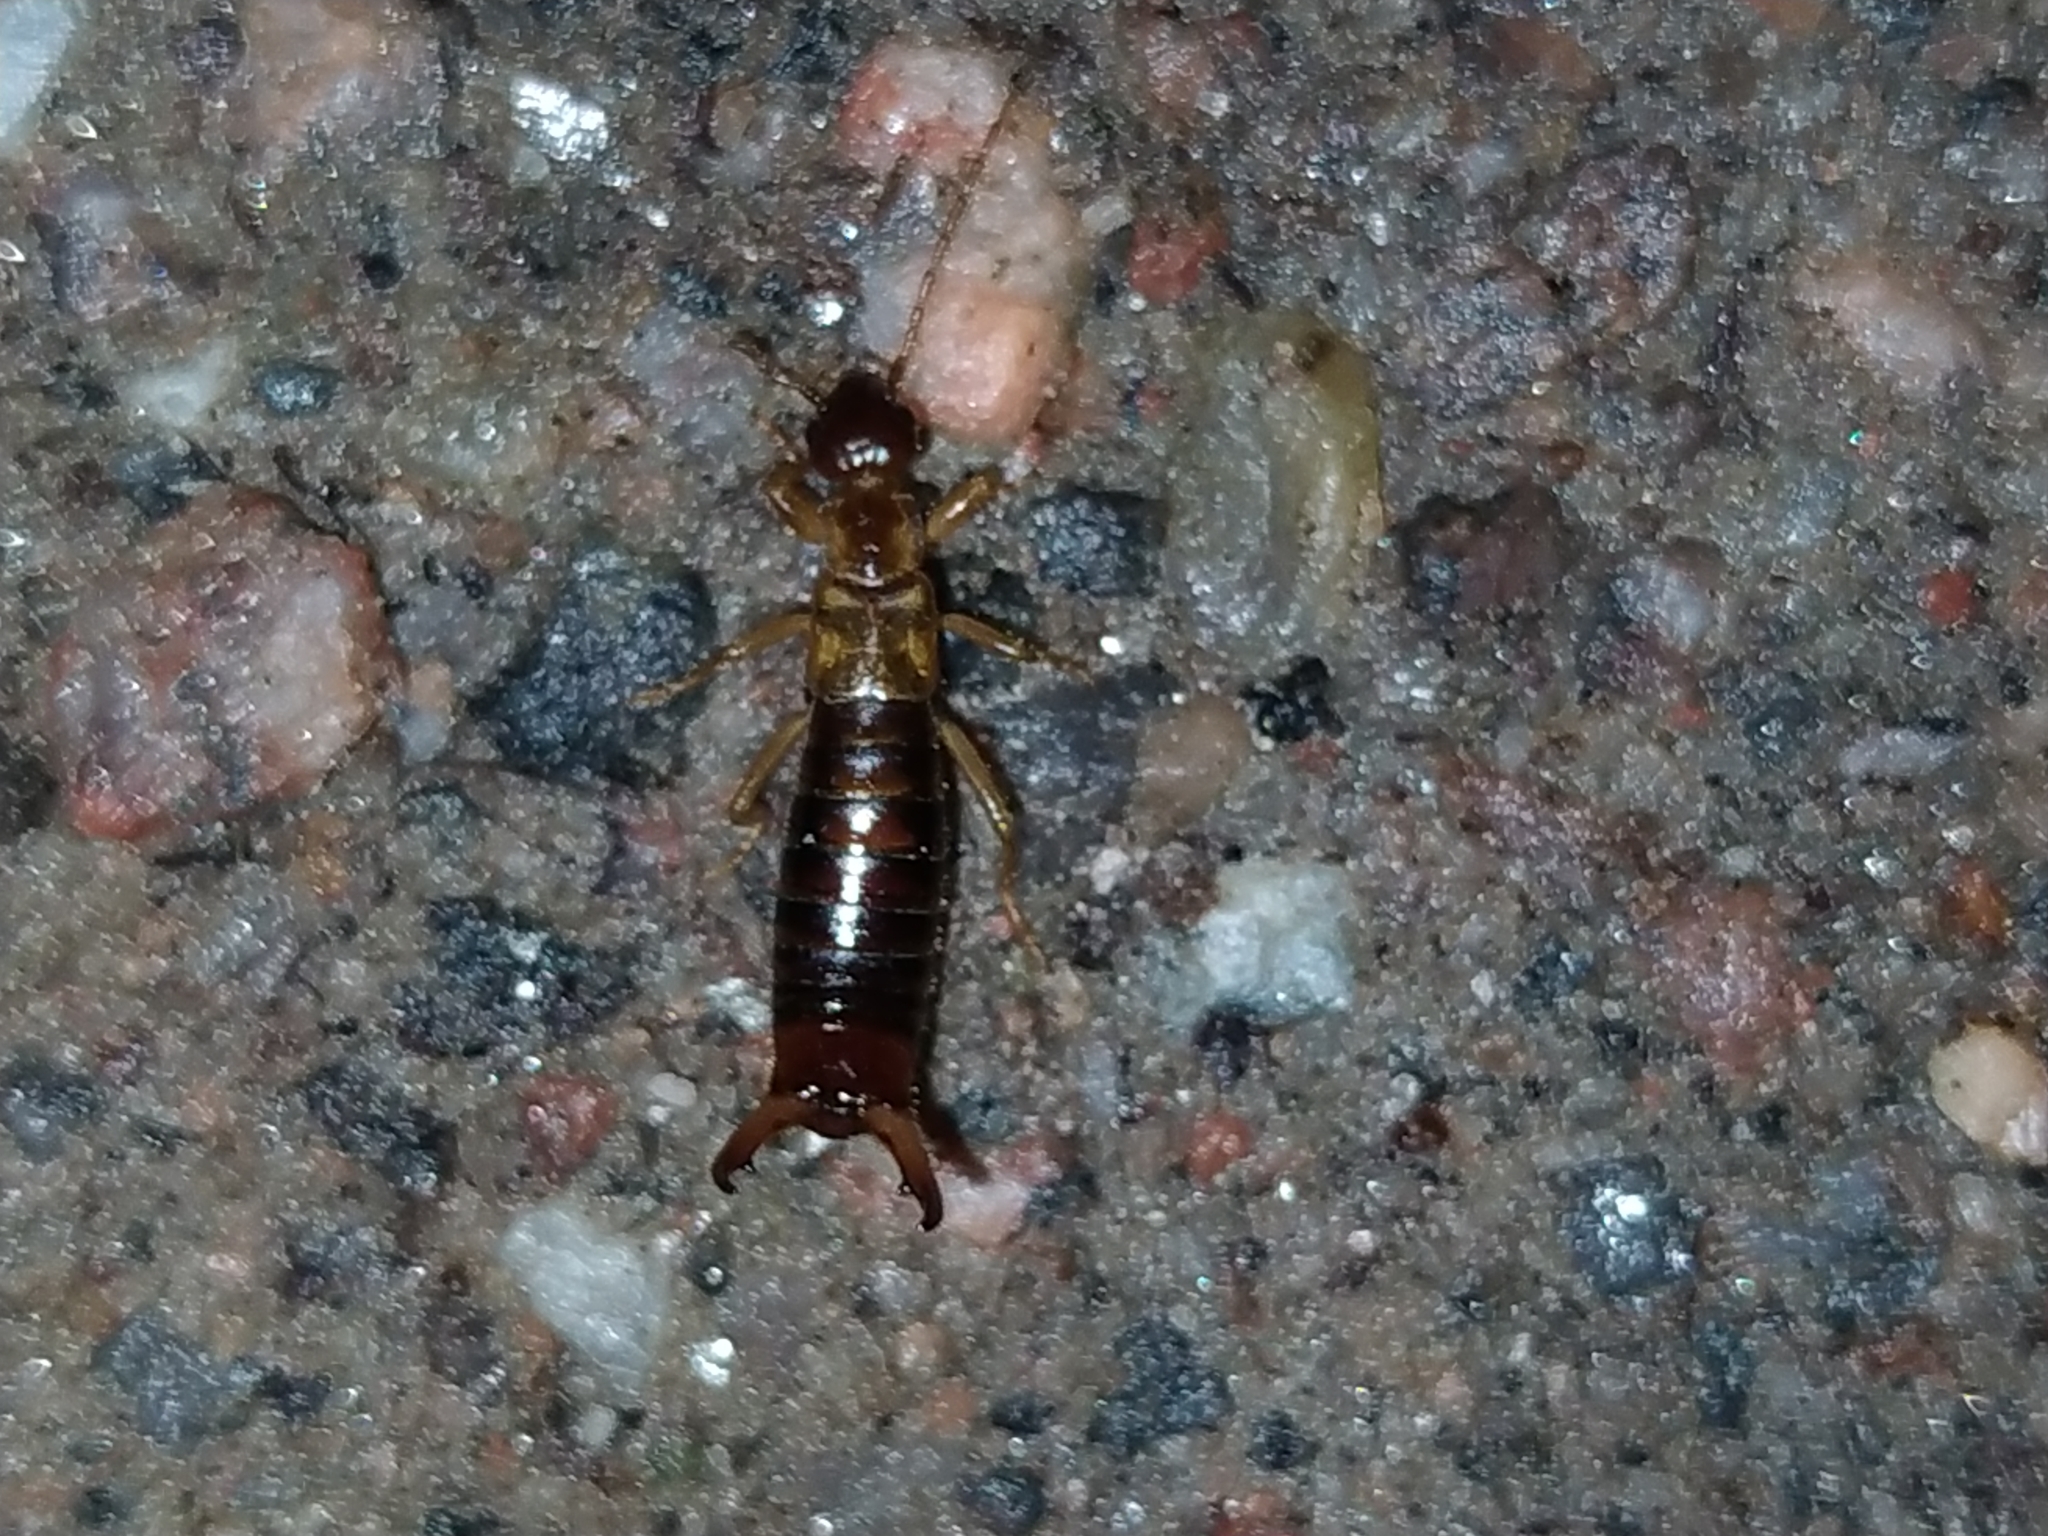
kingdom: Animalia
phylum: Arthropoda
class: Insecta
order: Dermaptera
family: Forficulidae
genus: Apterygida
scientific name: Apterygida albipennis
